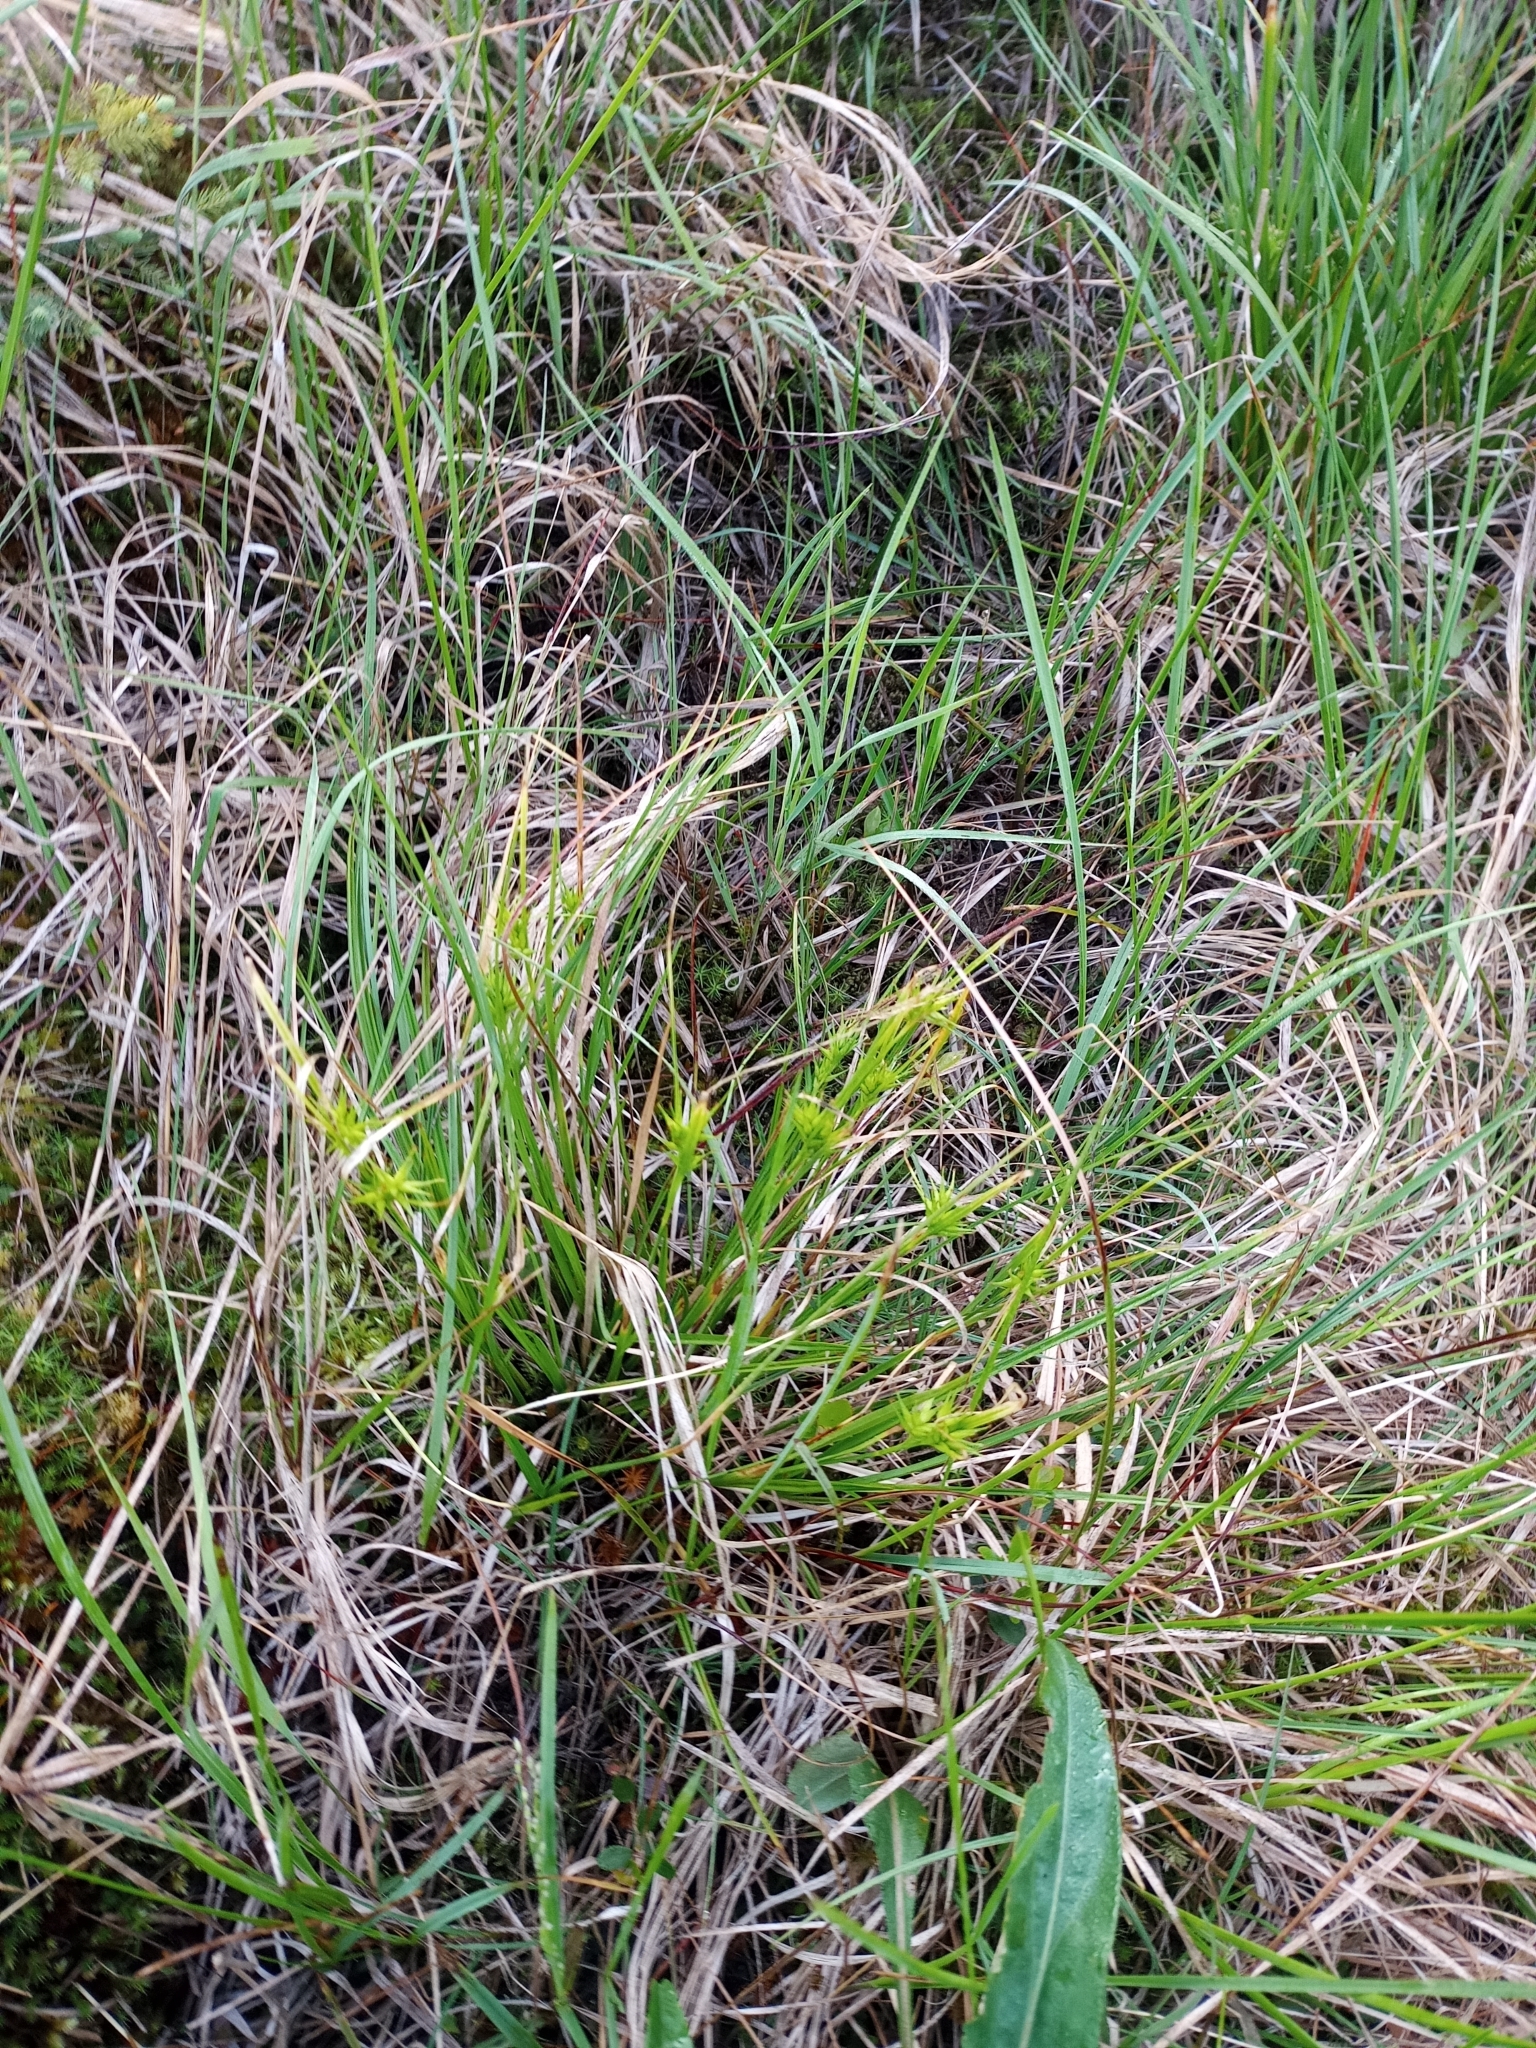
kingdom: Plantae
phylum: Tracheophyta
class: Liliopsida
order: Poales
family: Cyperaceae
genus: Carex
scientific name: Carex michauxiana
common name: Michaux's sedge
